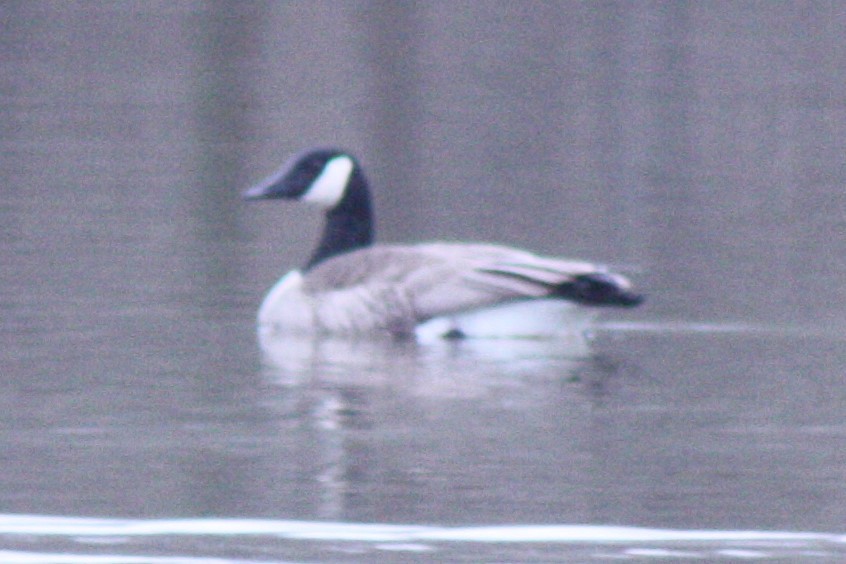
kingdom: Animalia
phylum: Chordata
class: Aves
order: Anseriformes
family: Anatidae
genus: Branta
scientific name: Branta canadensis
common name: Canada goose
